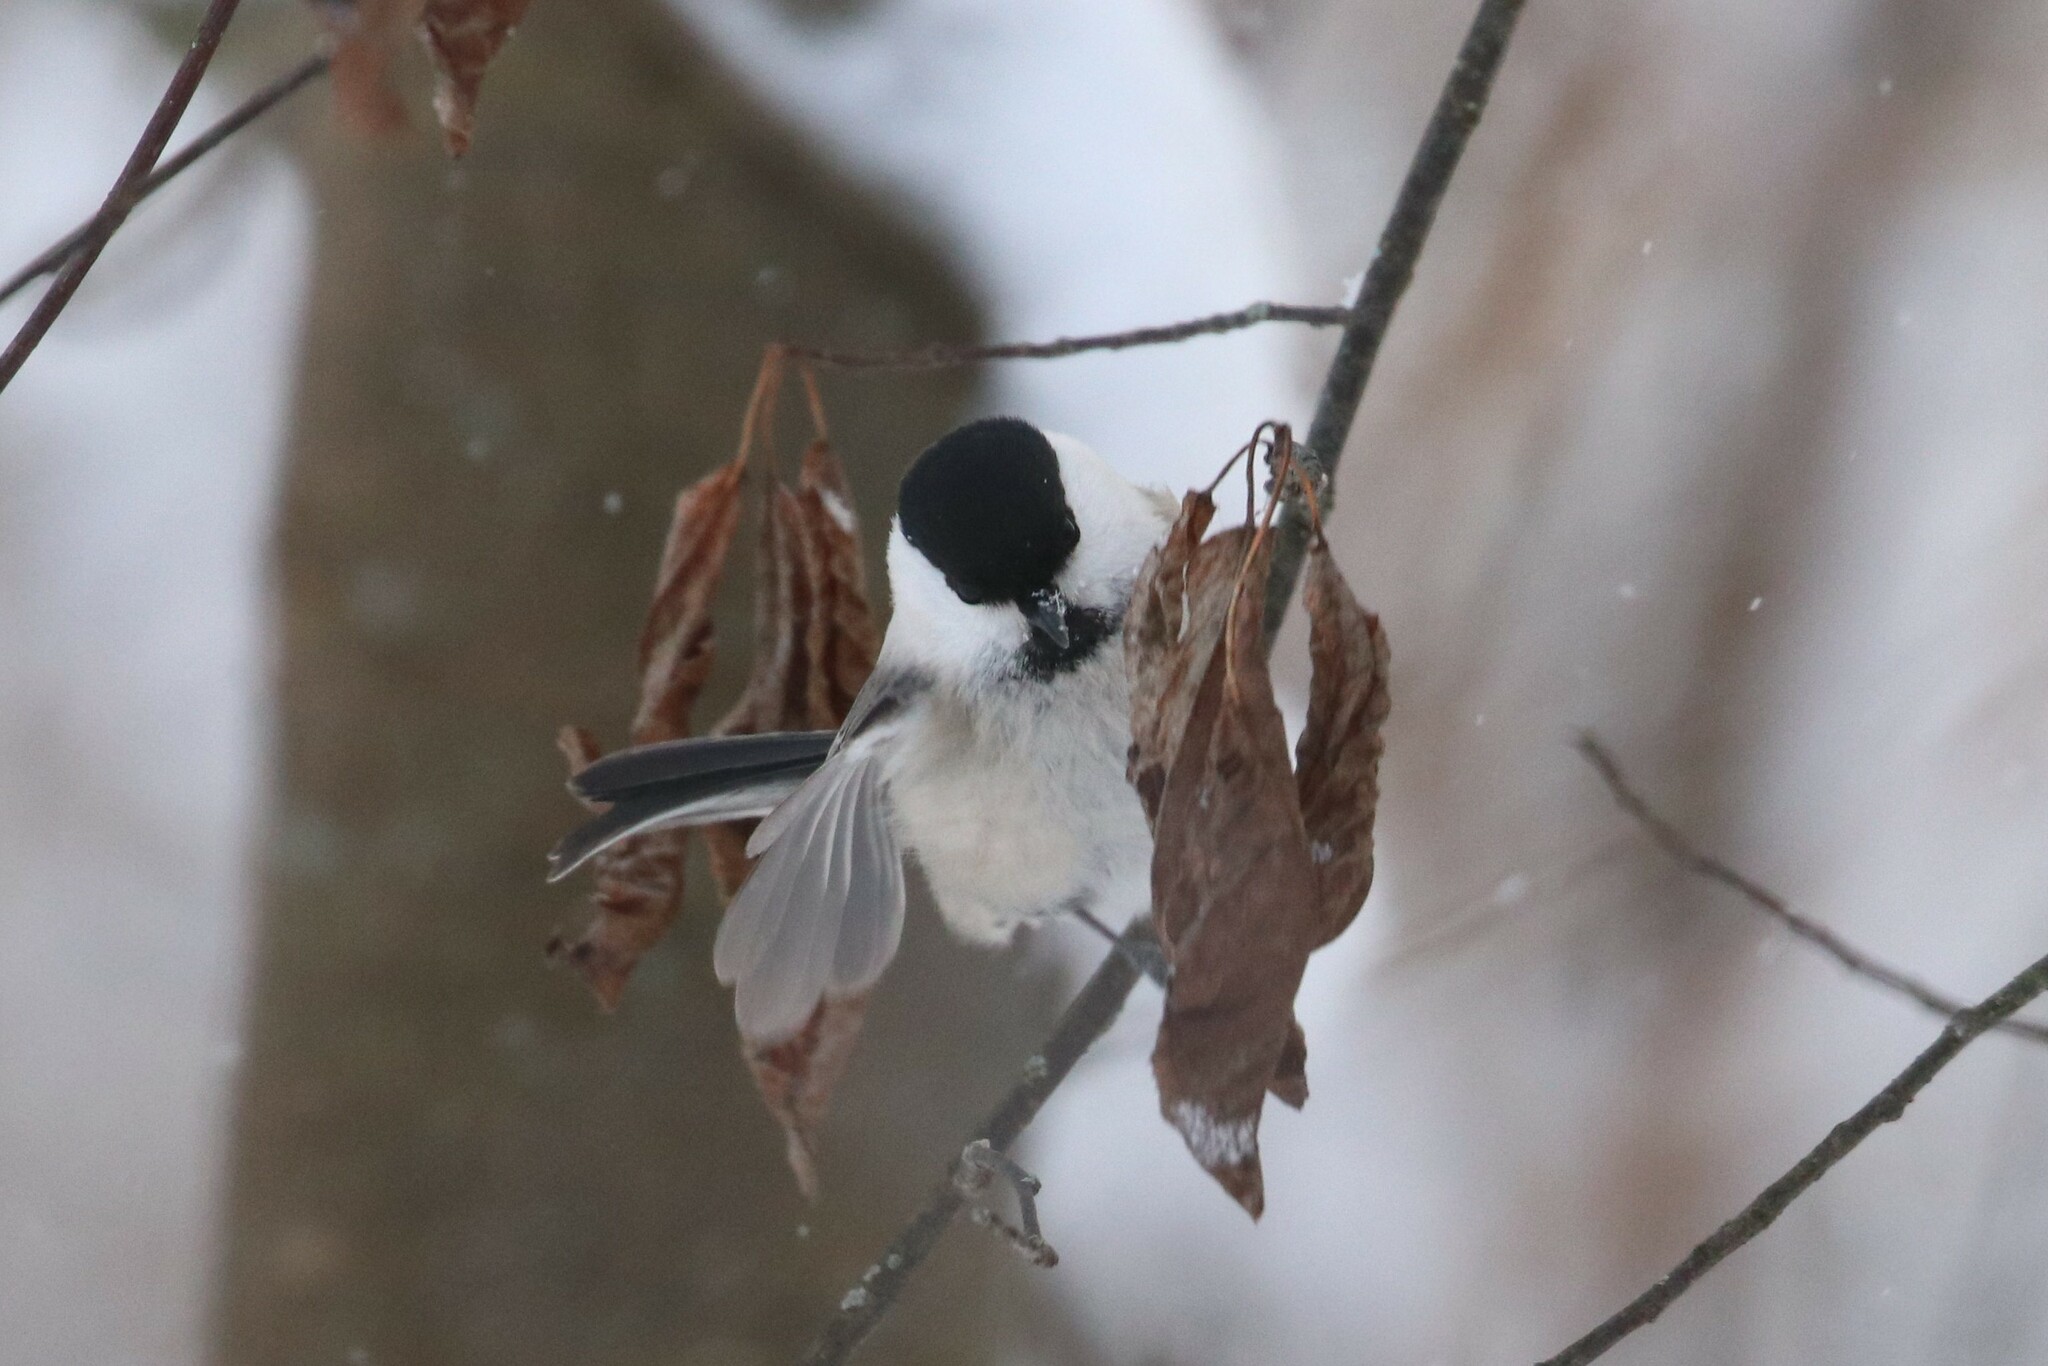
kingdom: Animalia
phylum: Chordata
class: Aves
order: Passeriformes
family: Paridae
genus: Poecile
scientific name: Poecile montanus
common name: Willow tit
